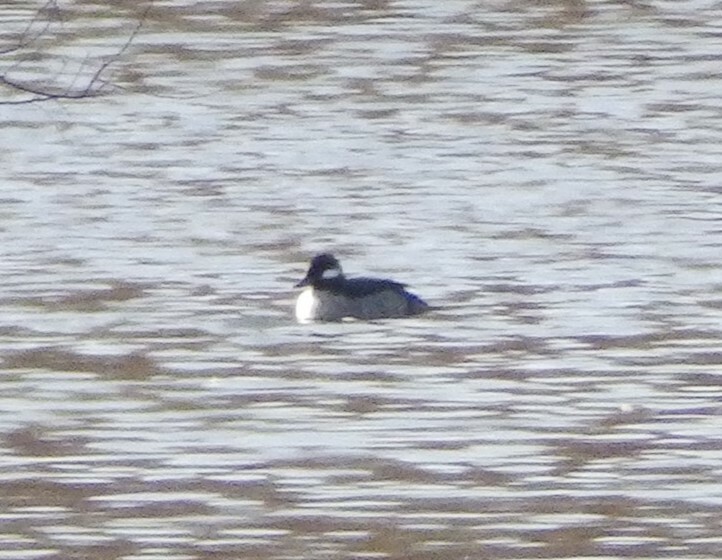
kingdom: Animalia
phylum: Chordata
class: Aves
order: Anseriformes
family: Anatidae
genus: Bucephala
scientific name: Bucephala albeola
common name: Bufflehead
